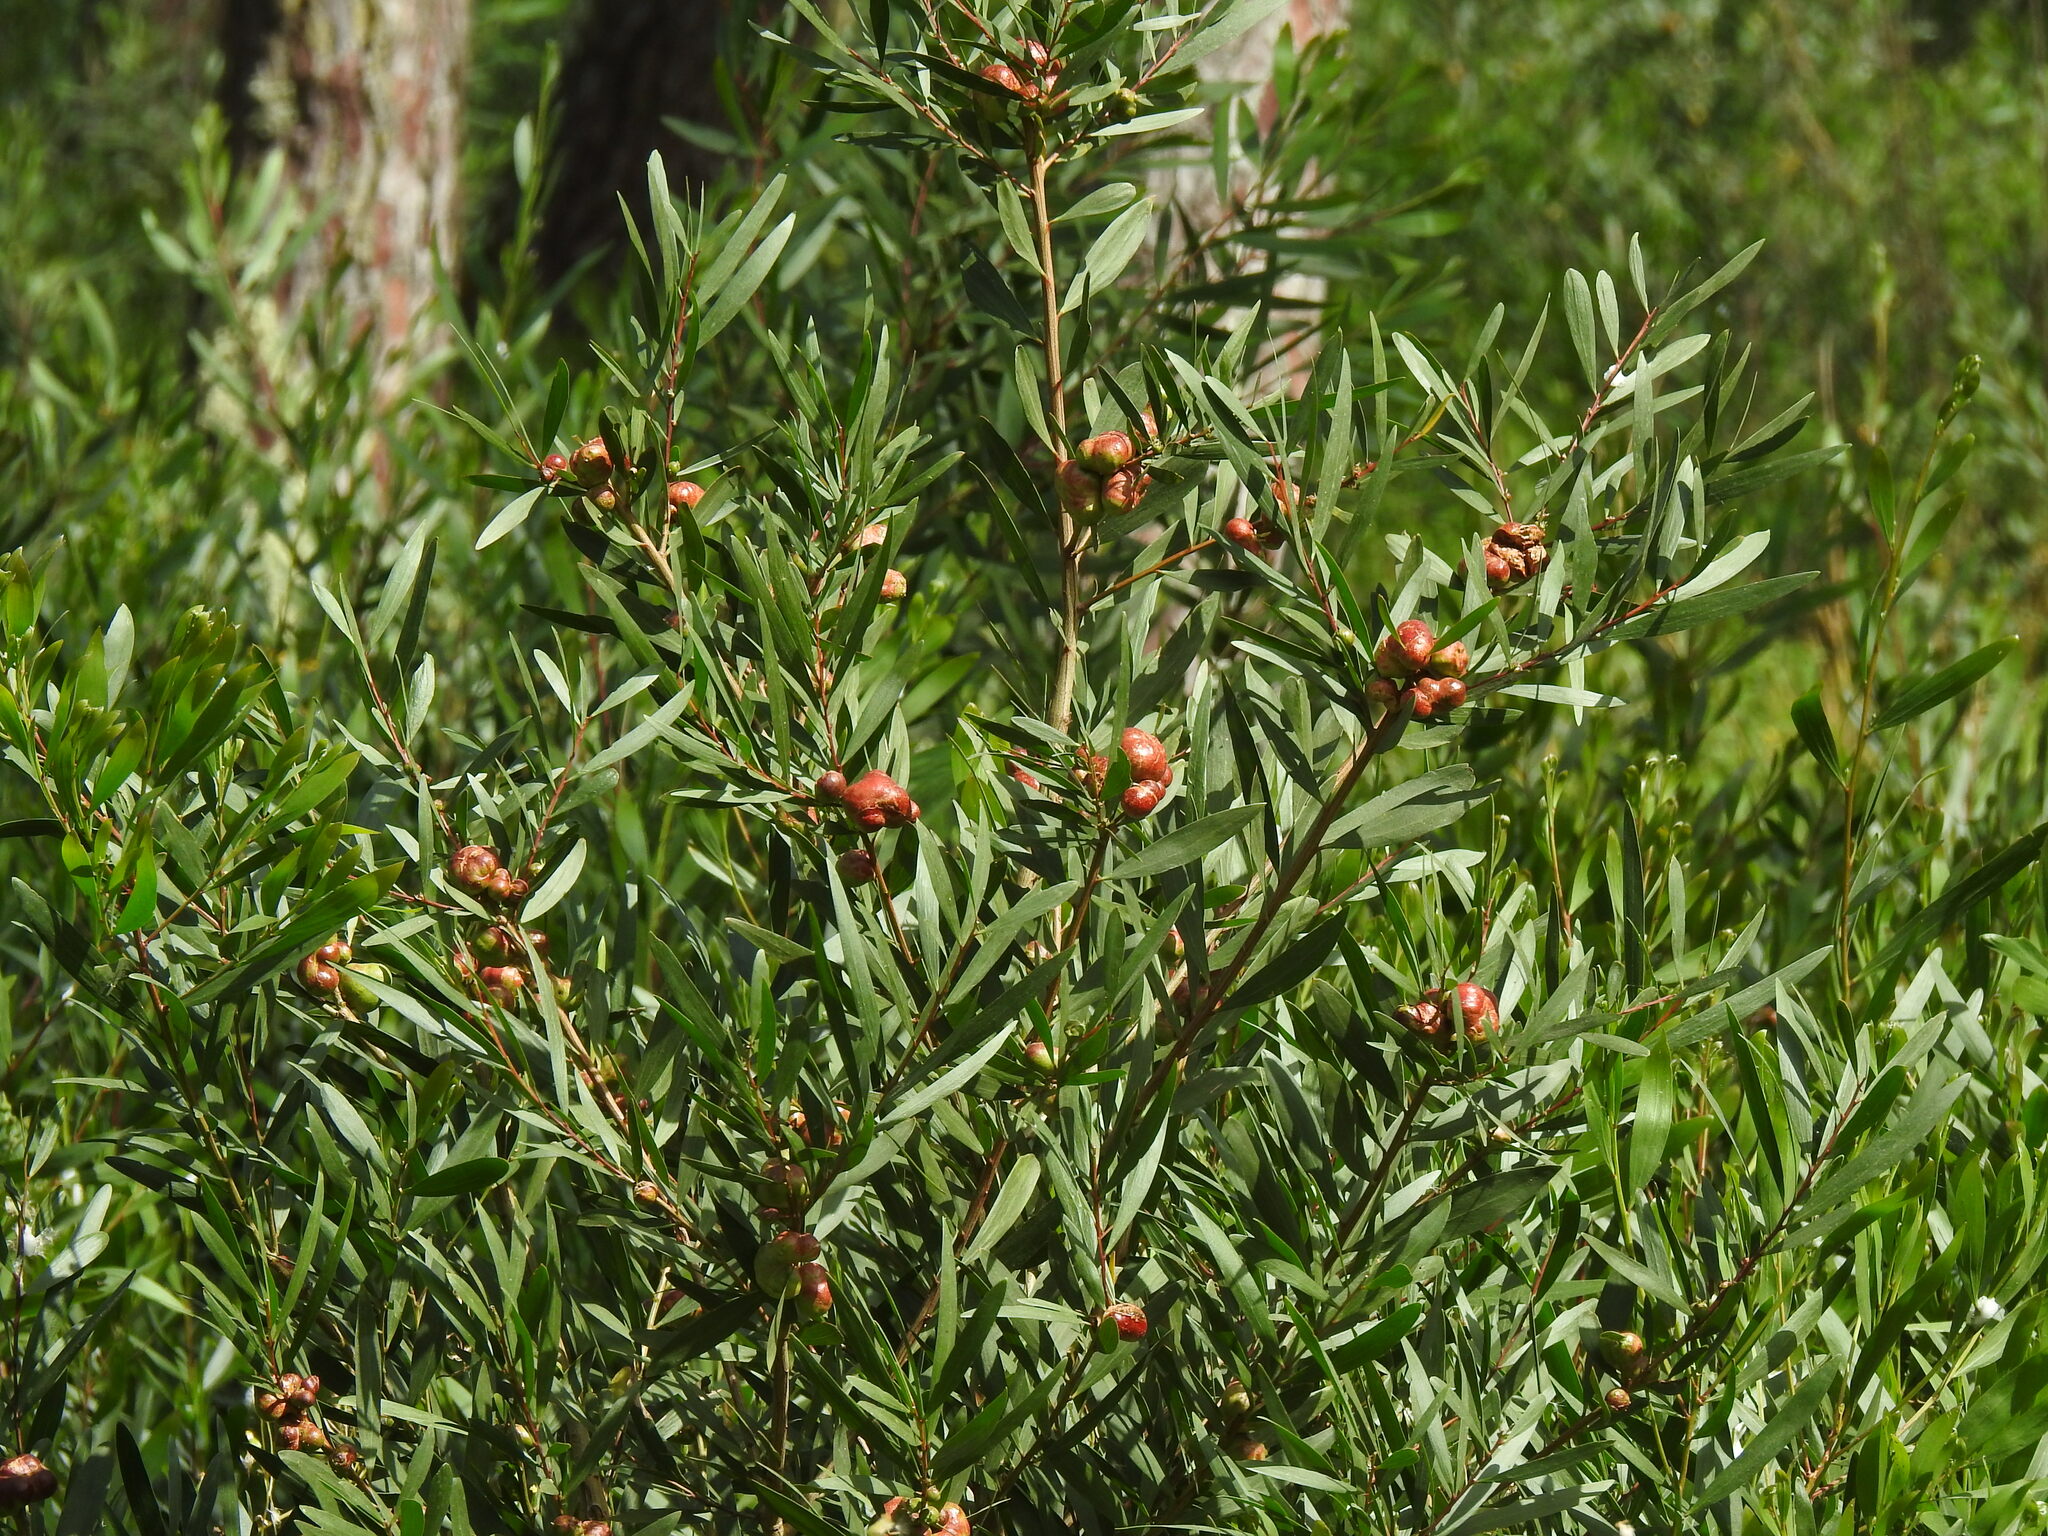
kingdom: Animalia
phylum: Arthropoda
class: Insecta
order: Hymenoptera
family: Pteromalidae
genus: Trichilogaster
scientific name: Trichilogaster acaciaelongifoliae
